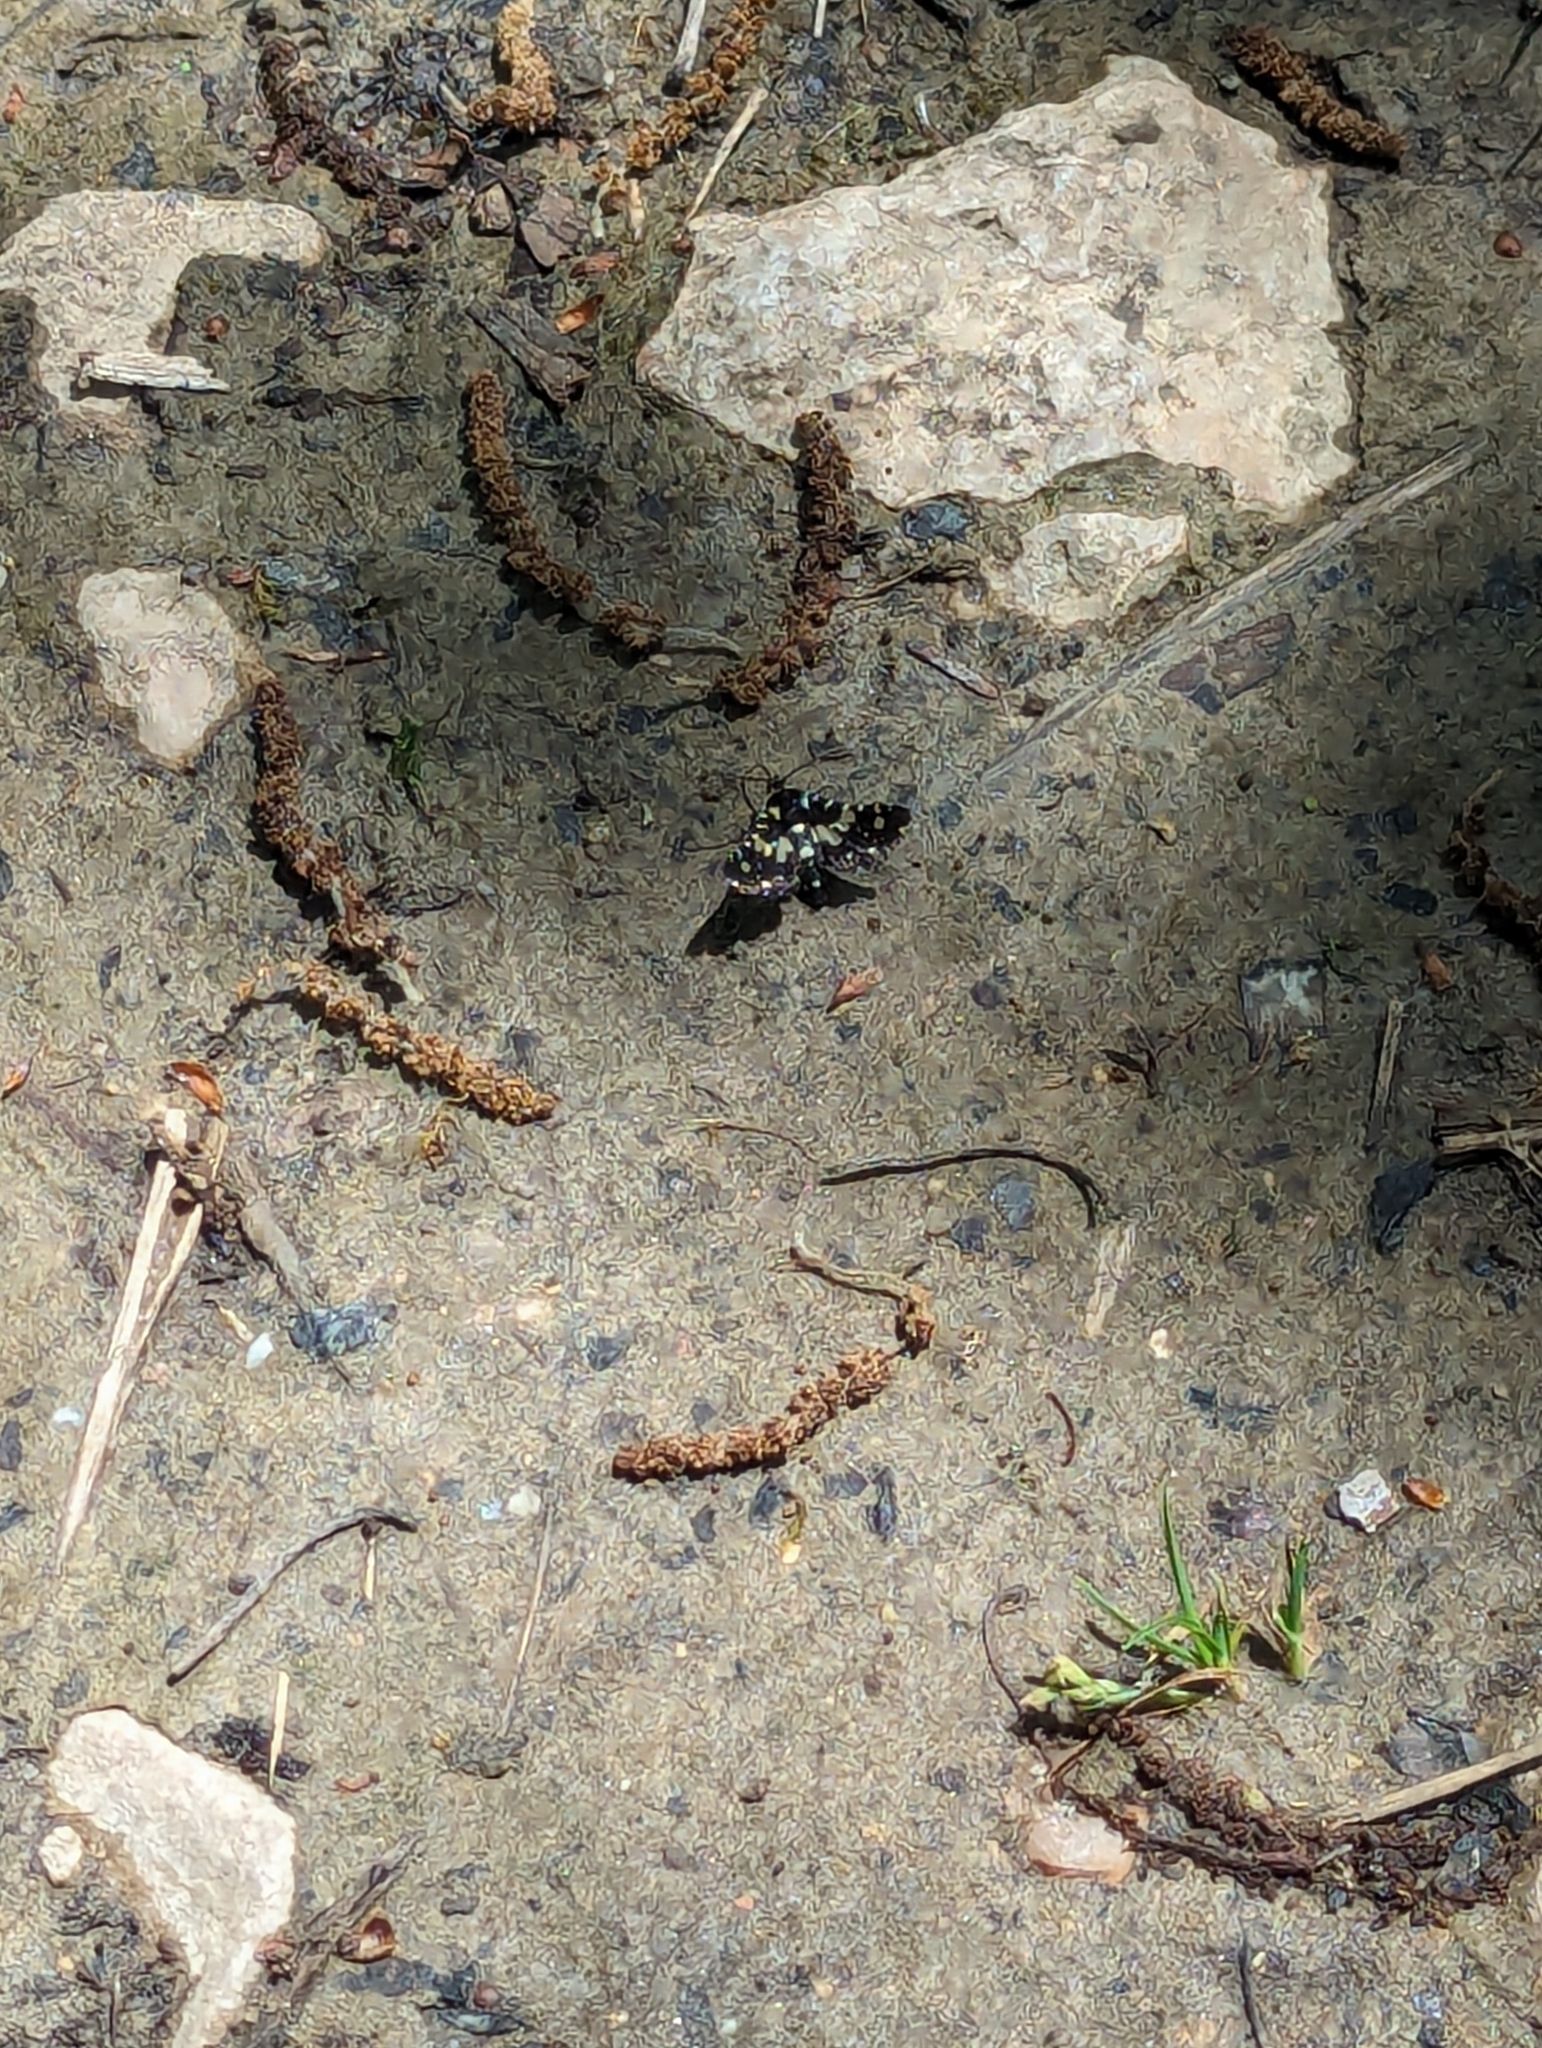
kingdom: Animalia
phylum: Arthropoda
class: Insecta
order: Lepidoptera
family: Thyrididae
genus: Pseudothyris
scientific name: Pseudothyris sepulchralis
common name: Mournful thyris moth
